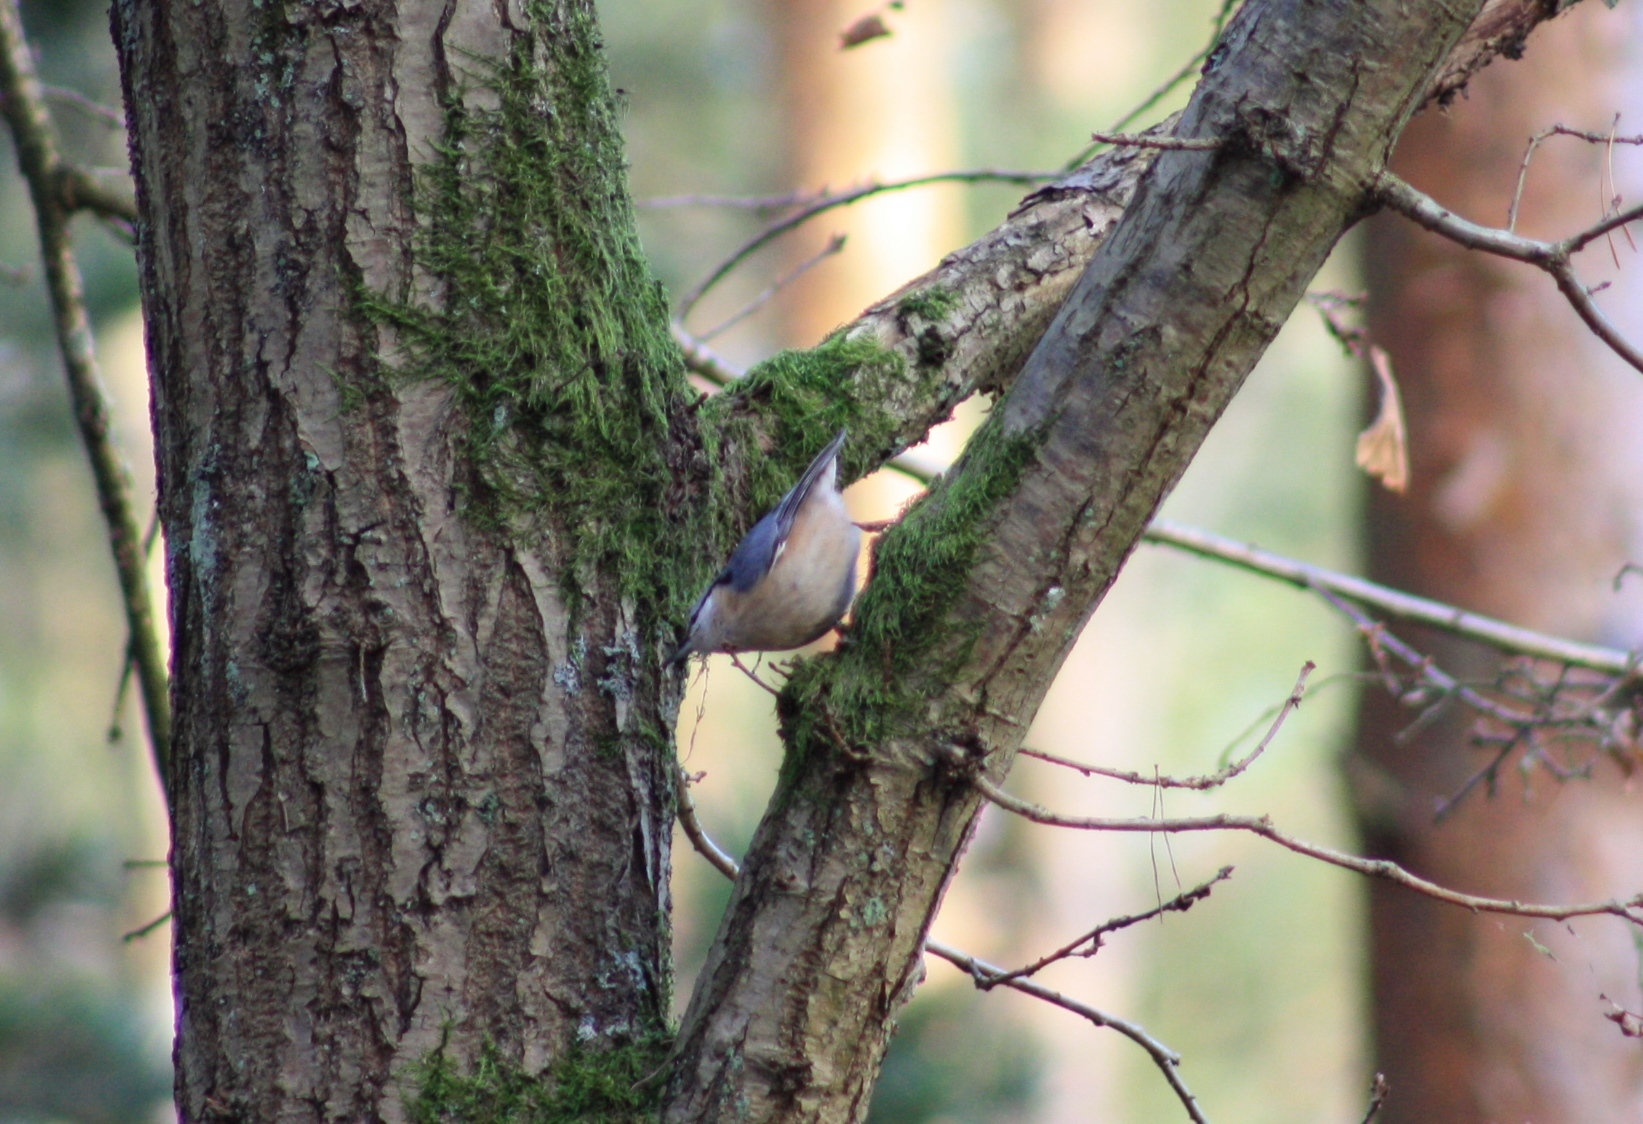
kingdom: Animalia
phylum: Chordata
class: Aves
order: Passeriformes
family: Sittidae
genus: Sitta
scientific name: Sitta europaea
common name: Eurasian nuthatch
